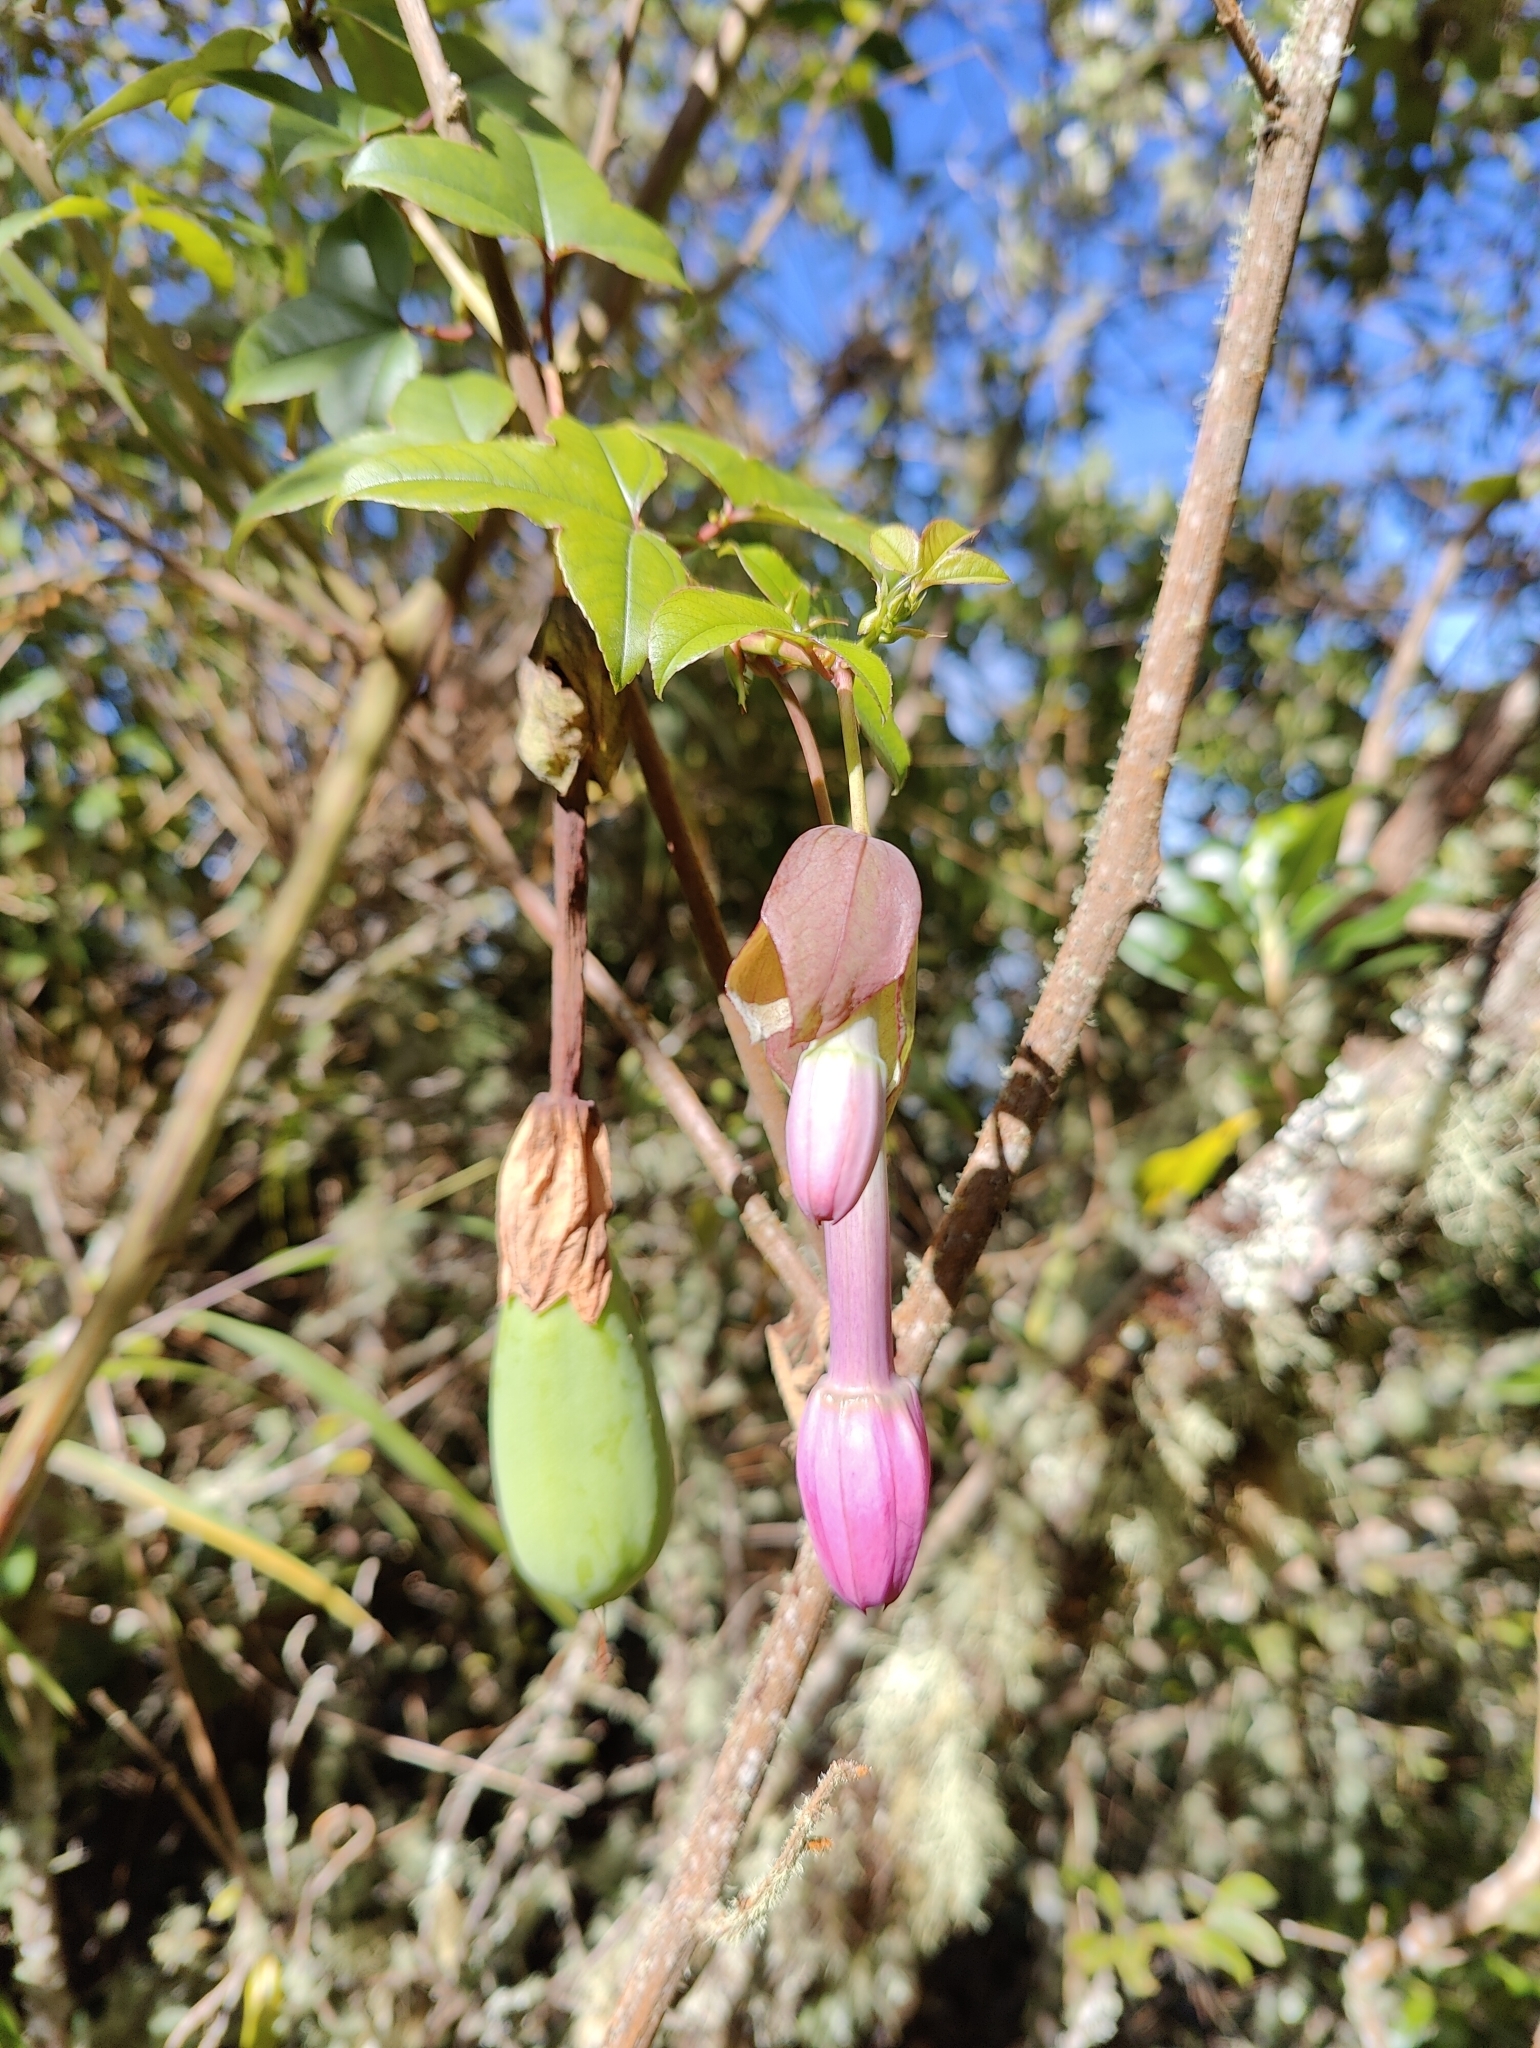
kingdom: Plantae
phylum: Tracheophyta
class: Magnoliopsida
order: Malpighiales
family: Passifloraceae
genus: Passiflora
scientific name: Passiflora cumbalensis
